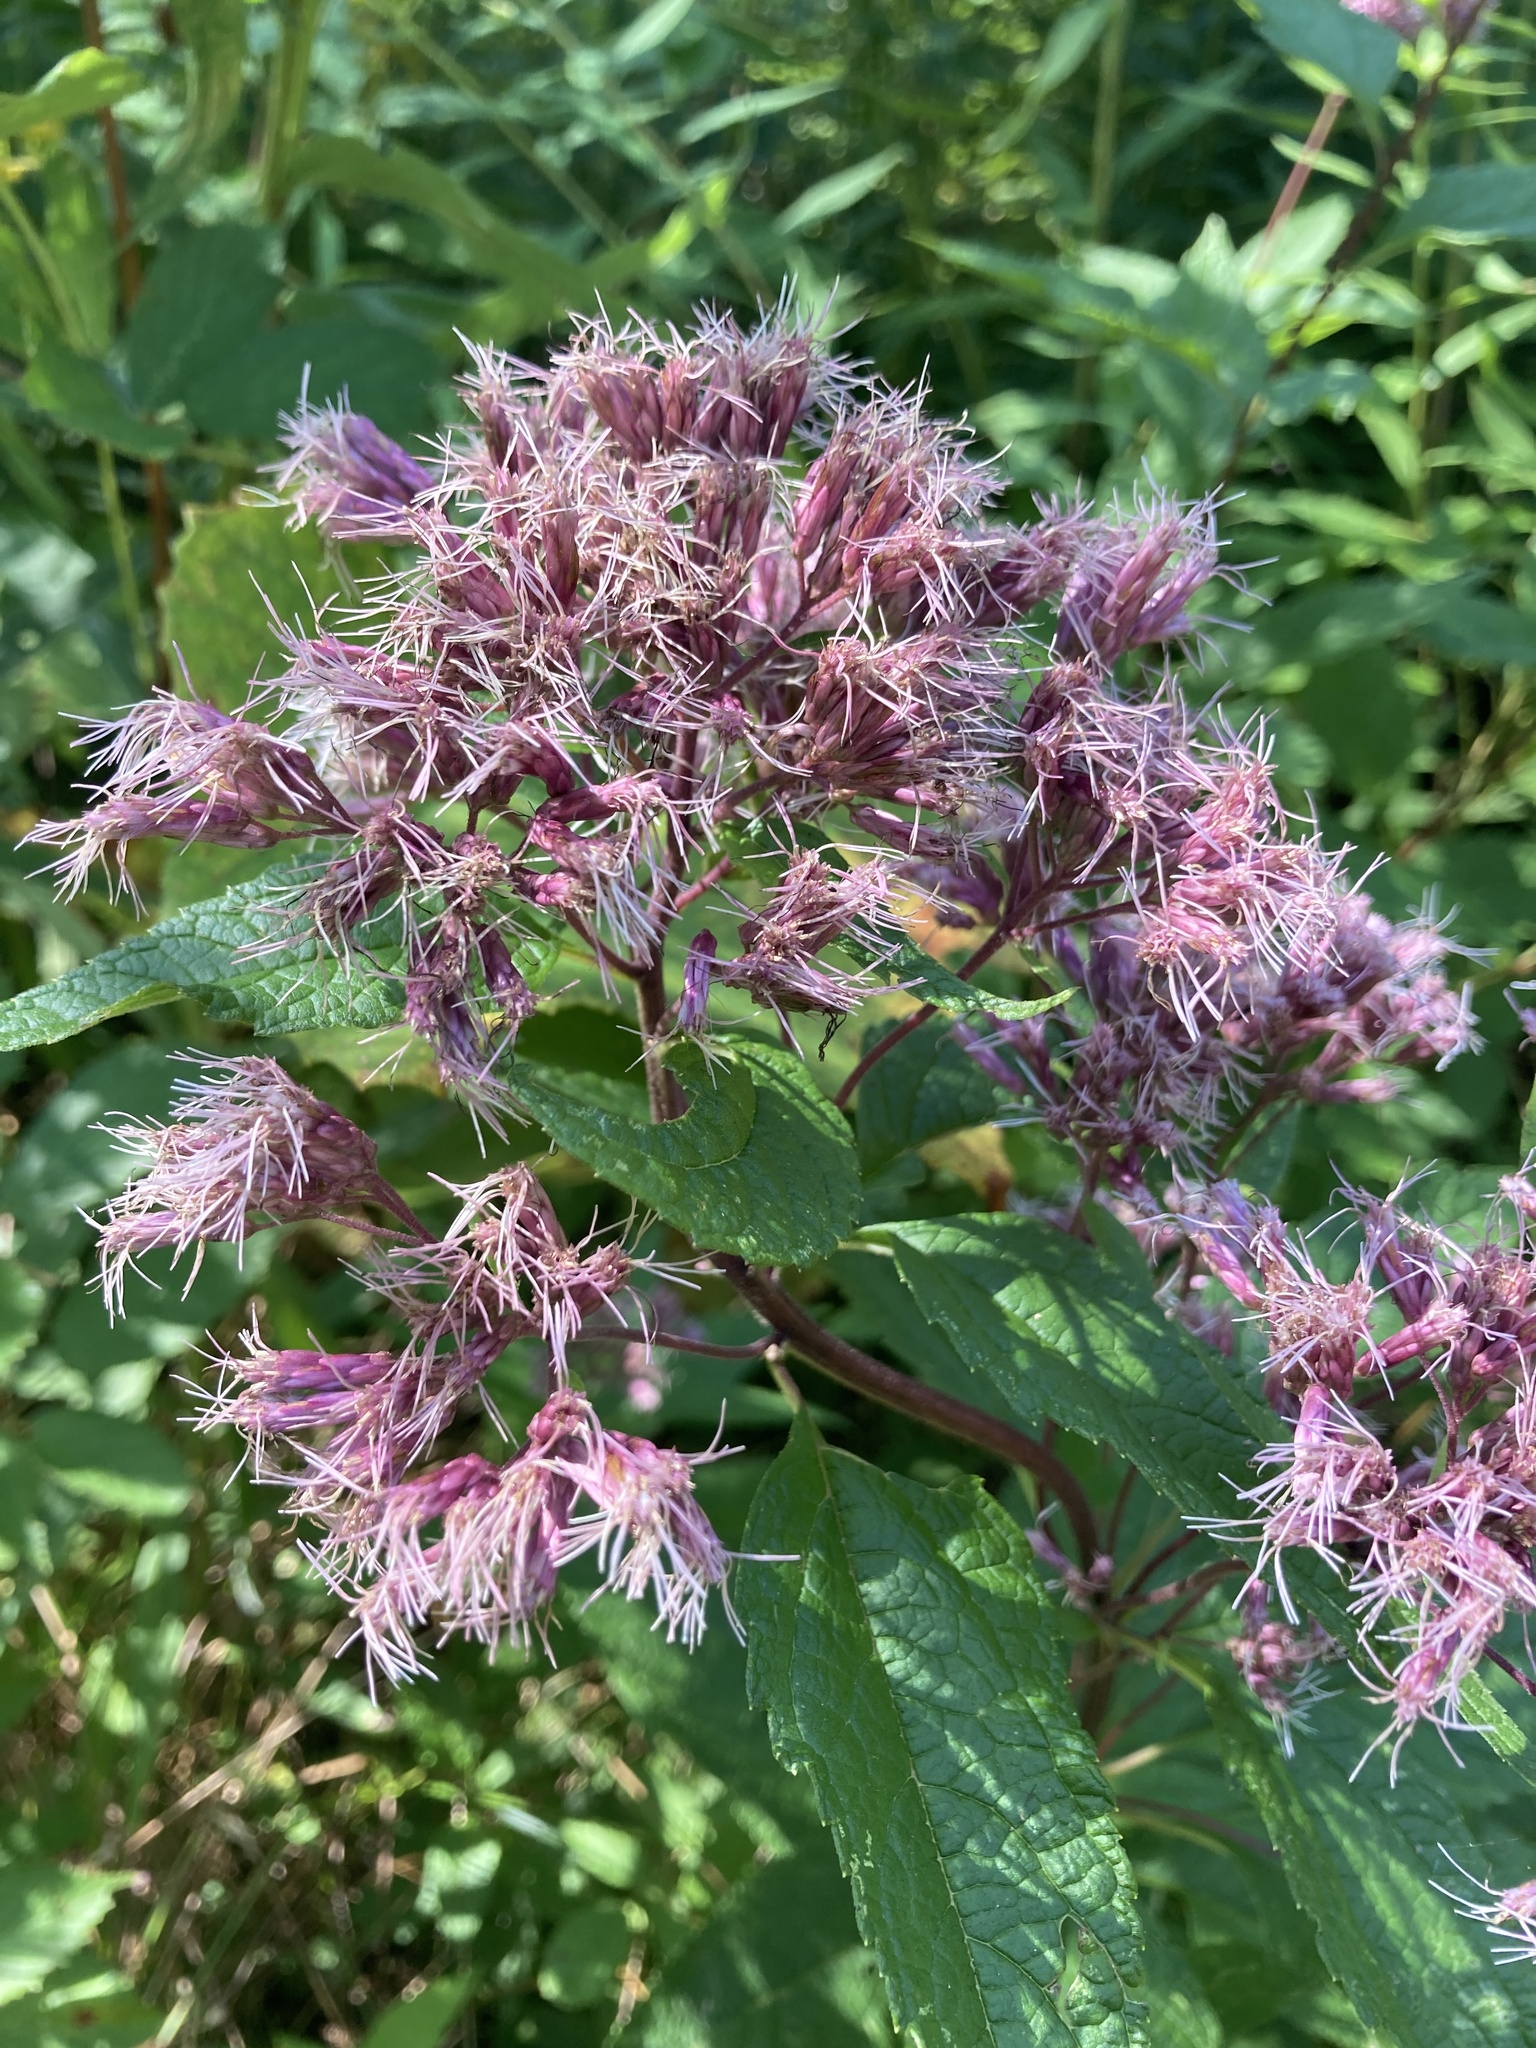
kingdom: Plantae
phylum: Tracheophyta
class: Magnoliopsida
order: Asterales
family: Asteraceae
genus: Eutrochium
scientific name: Eutrochium maculatum
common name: Spotted joe pye weed
